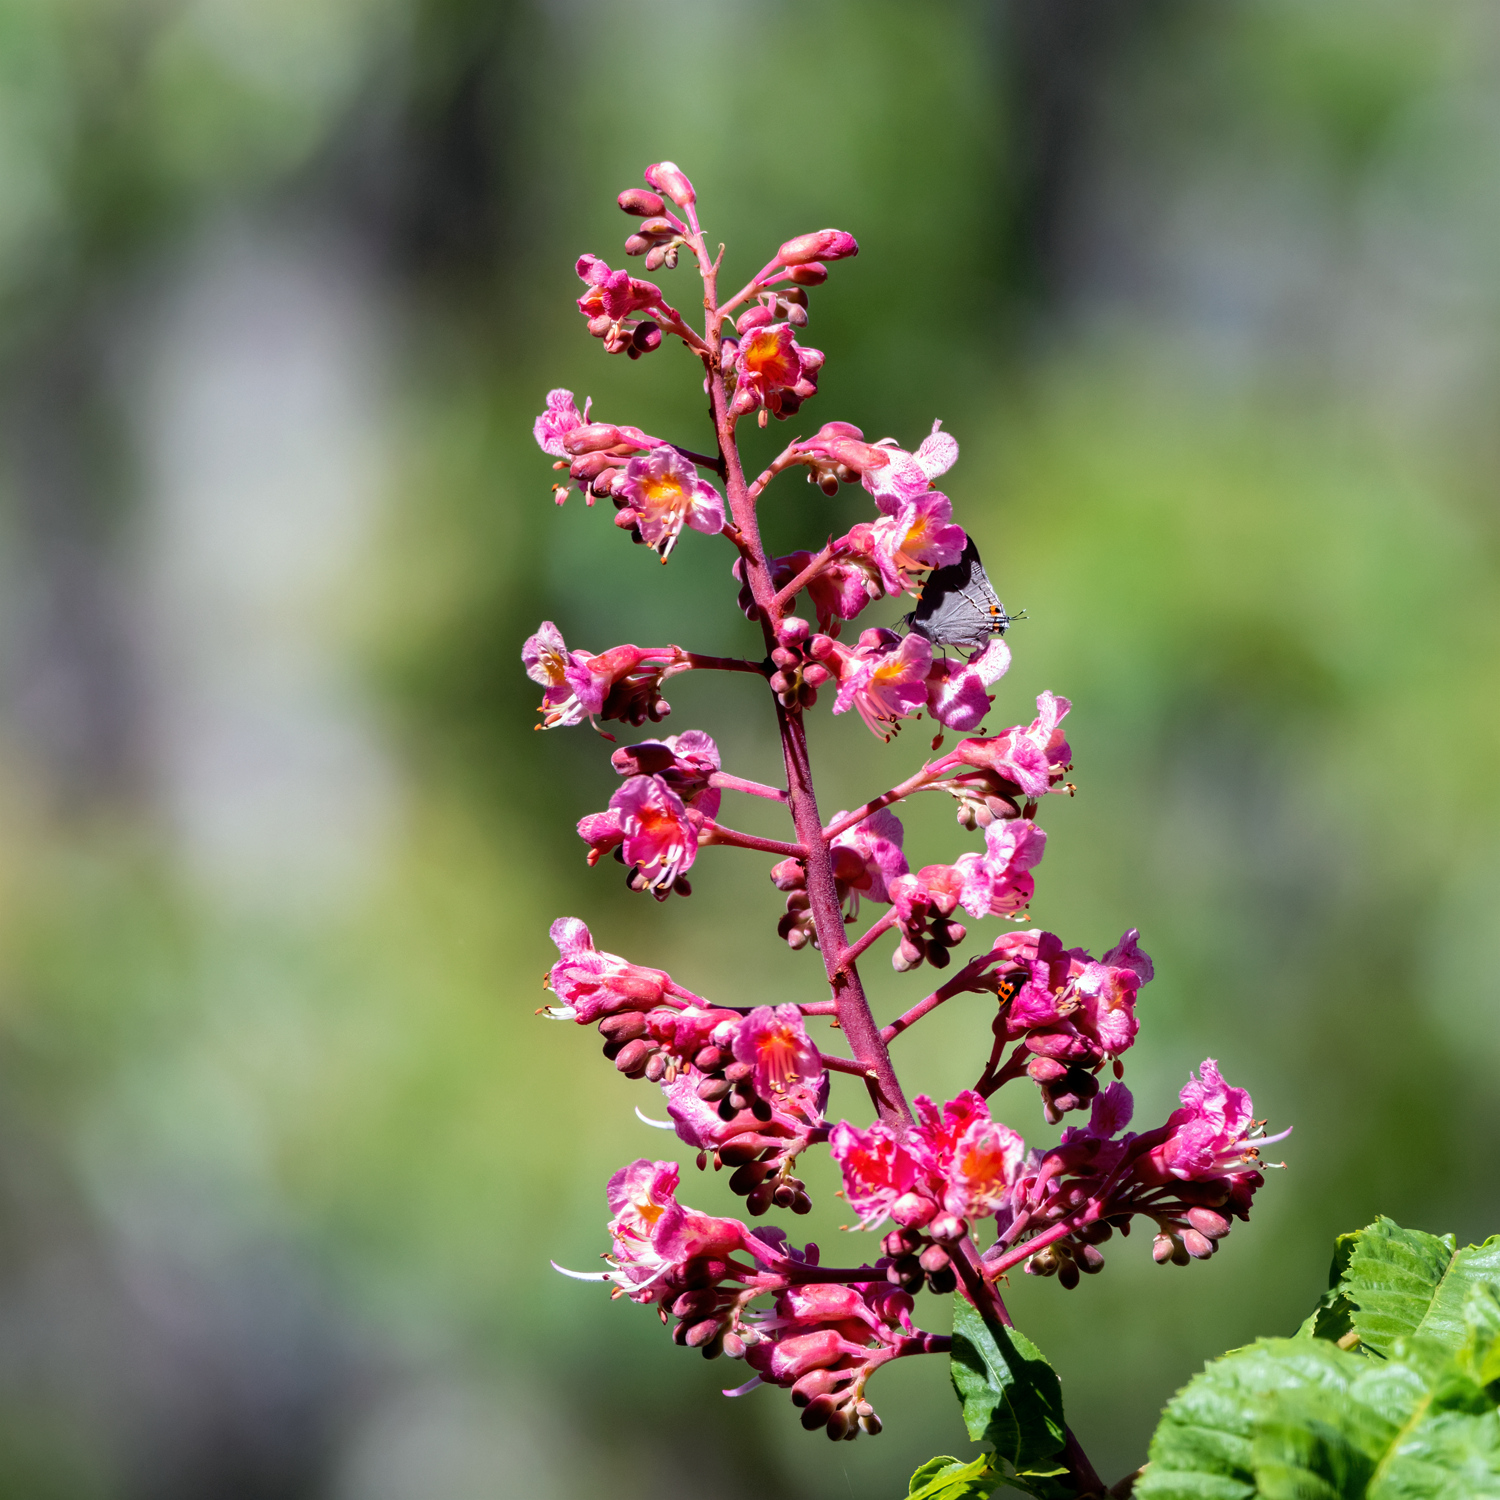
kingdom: Animalia
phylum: Arthropoda
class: Insecta
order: Lepidoptera
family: Lycaenidae
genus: Strymon
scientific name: Strymon melinus
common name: Gray hairstreak
